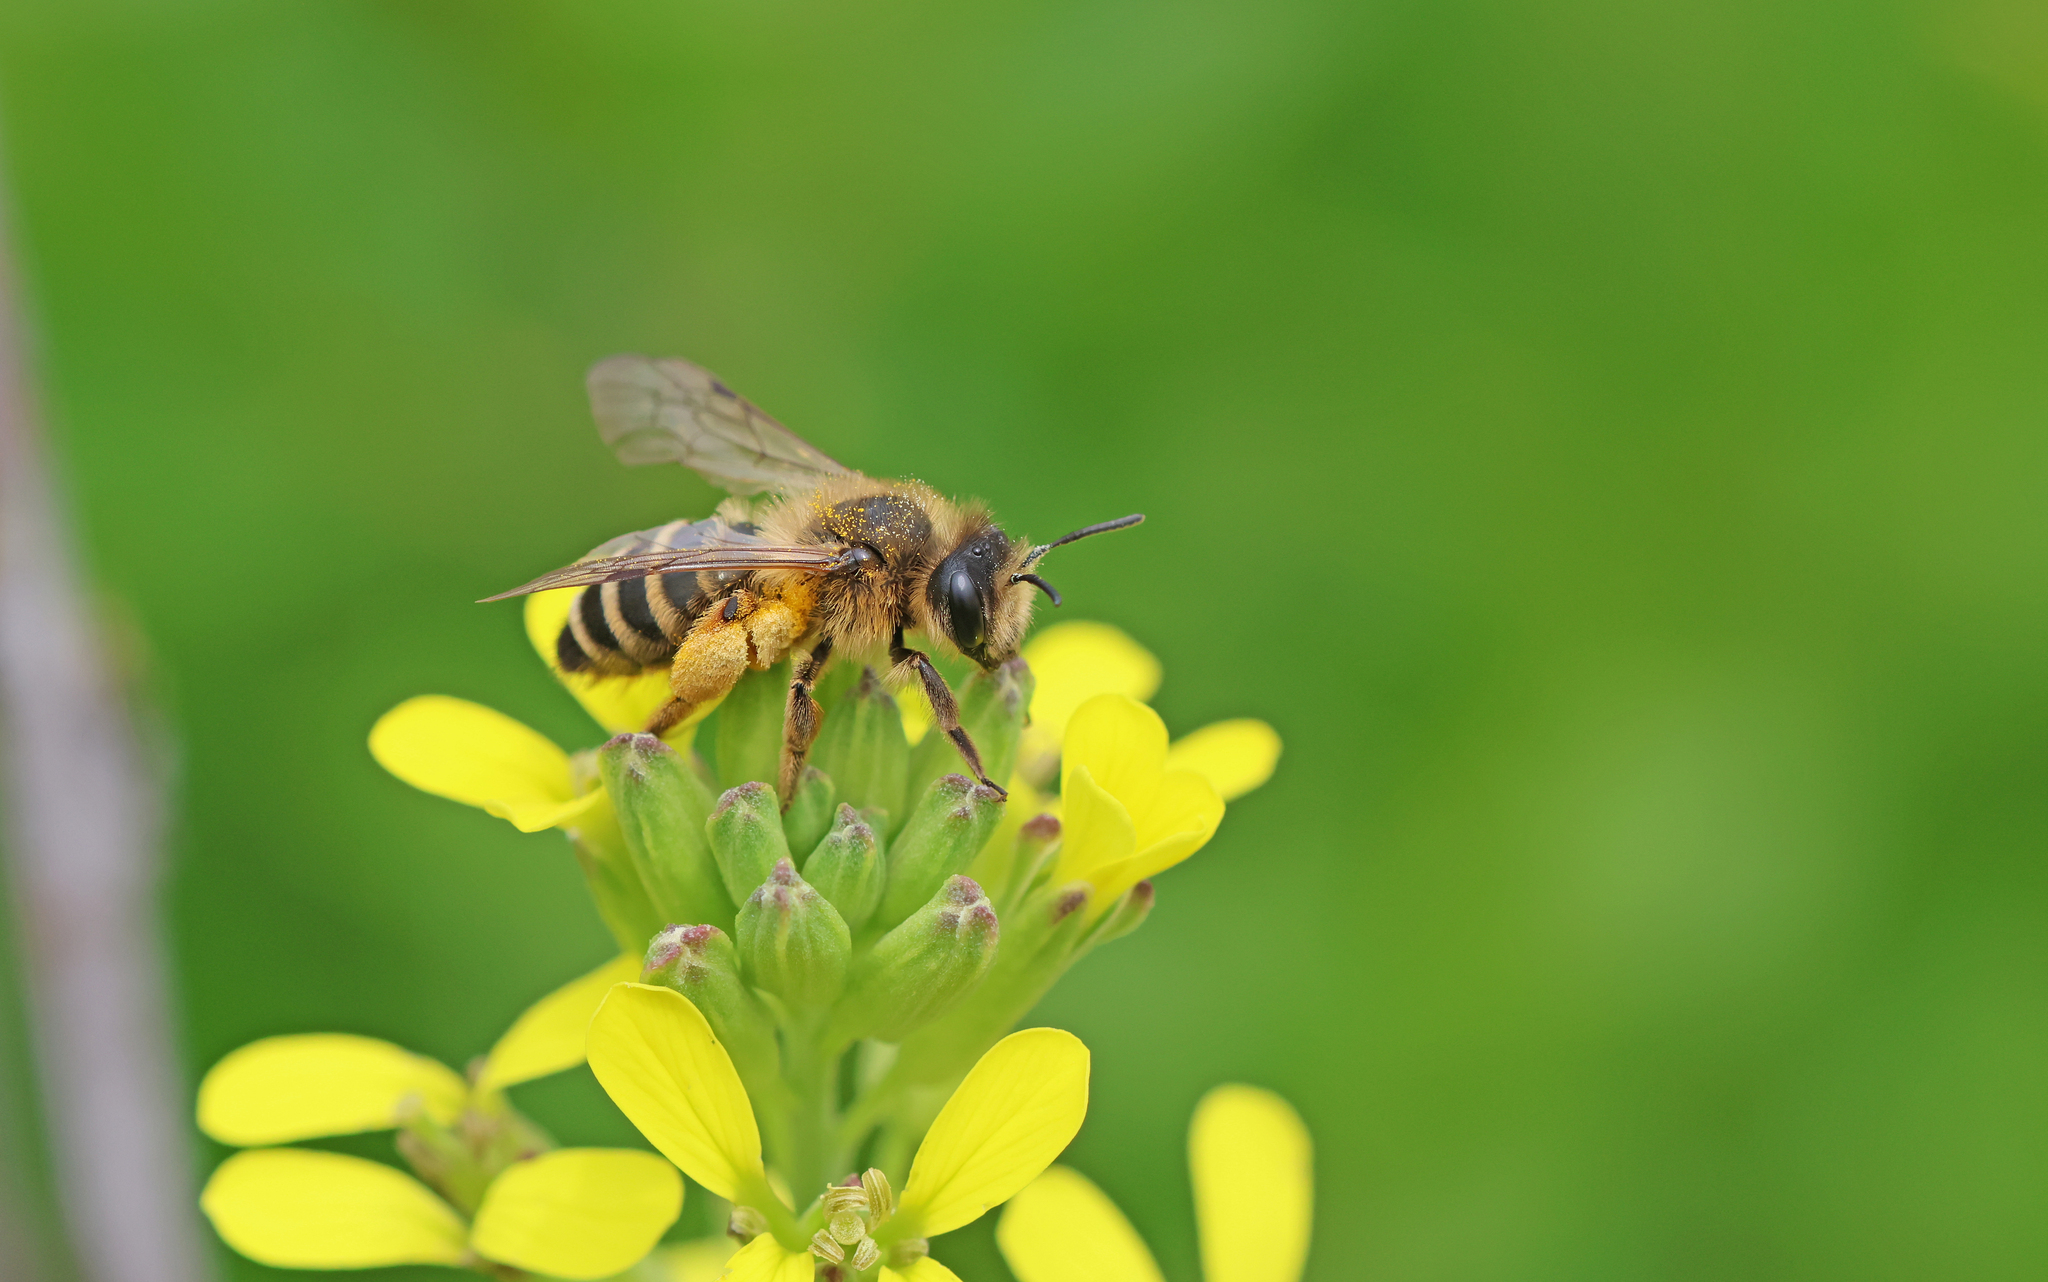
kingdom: Animalia
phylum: Arthropoda
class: Insecta
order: Hymenoptera
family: Andrenidae
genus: Andrena
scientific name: Andrena flavipes
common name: Yellow-legged mining bee
